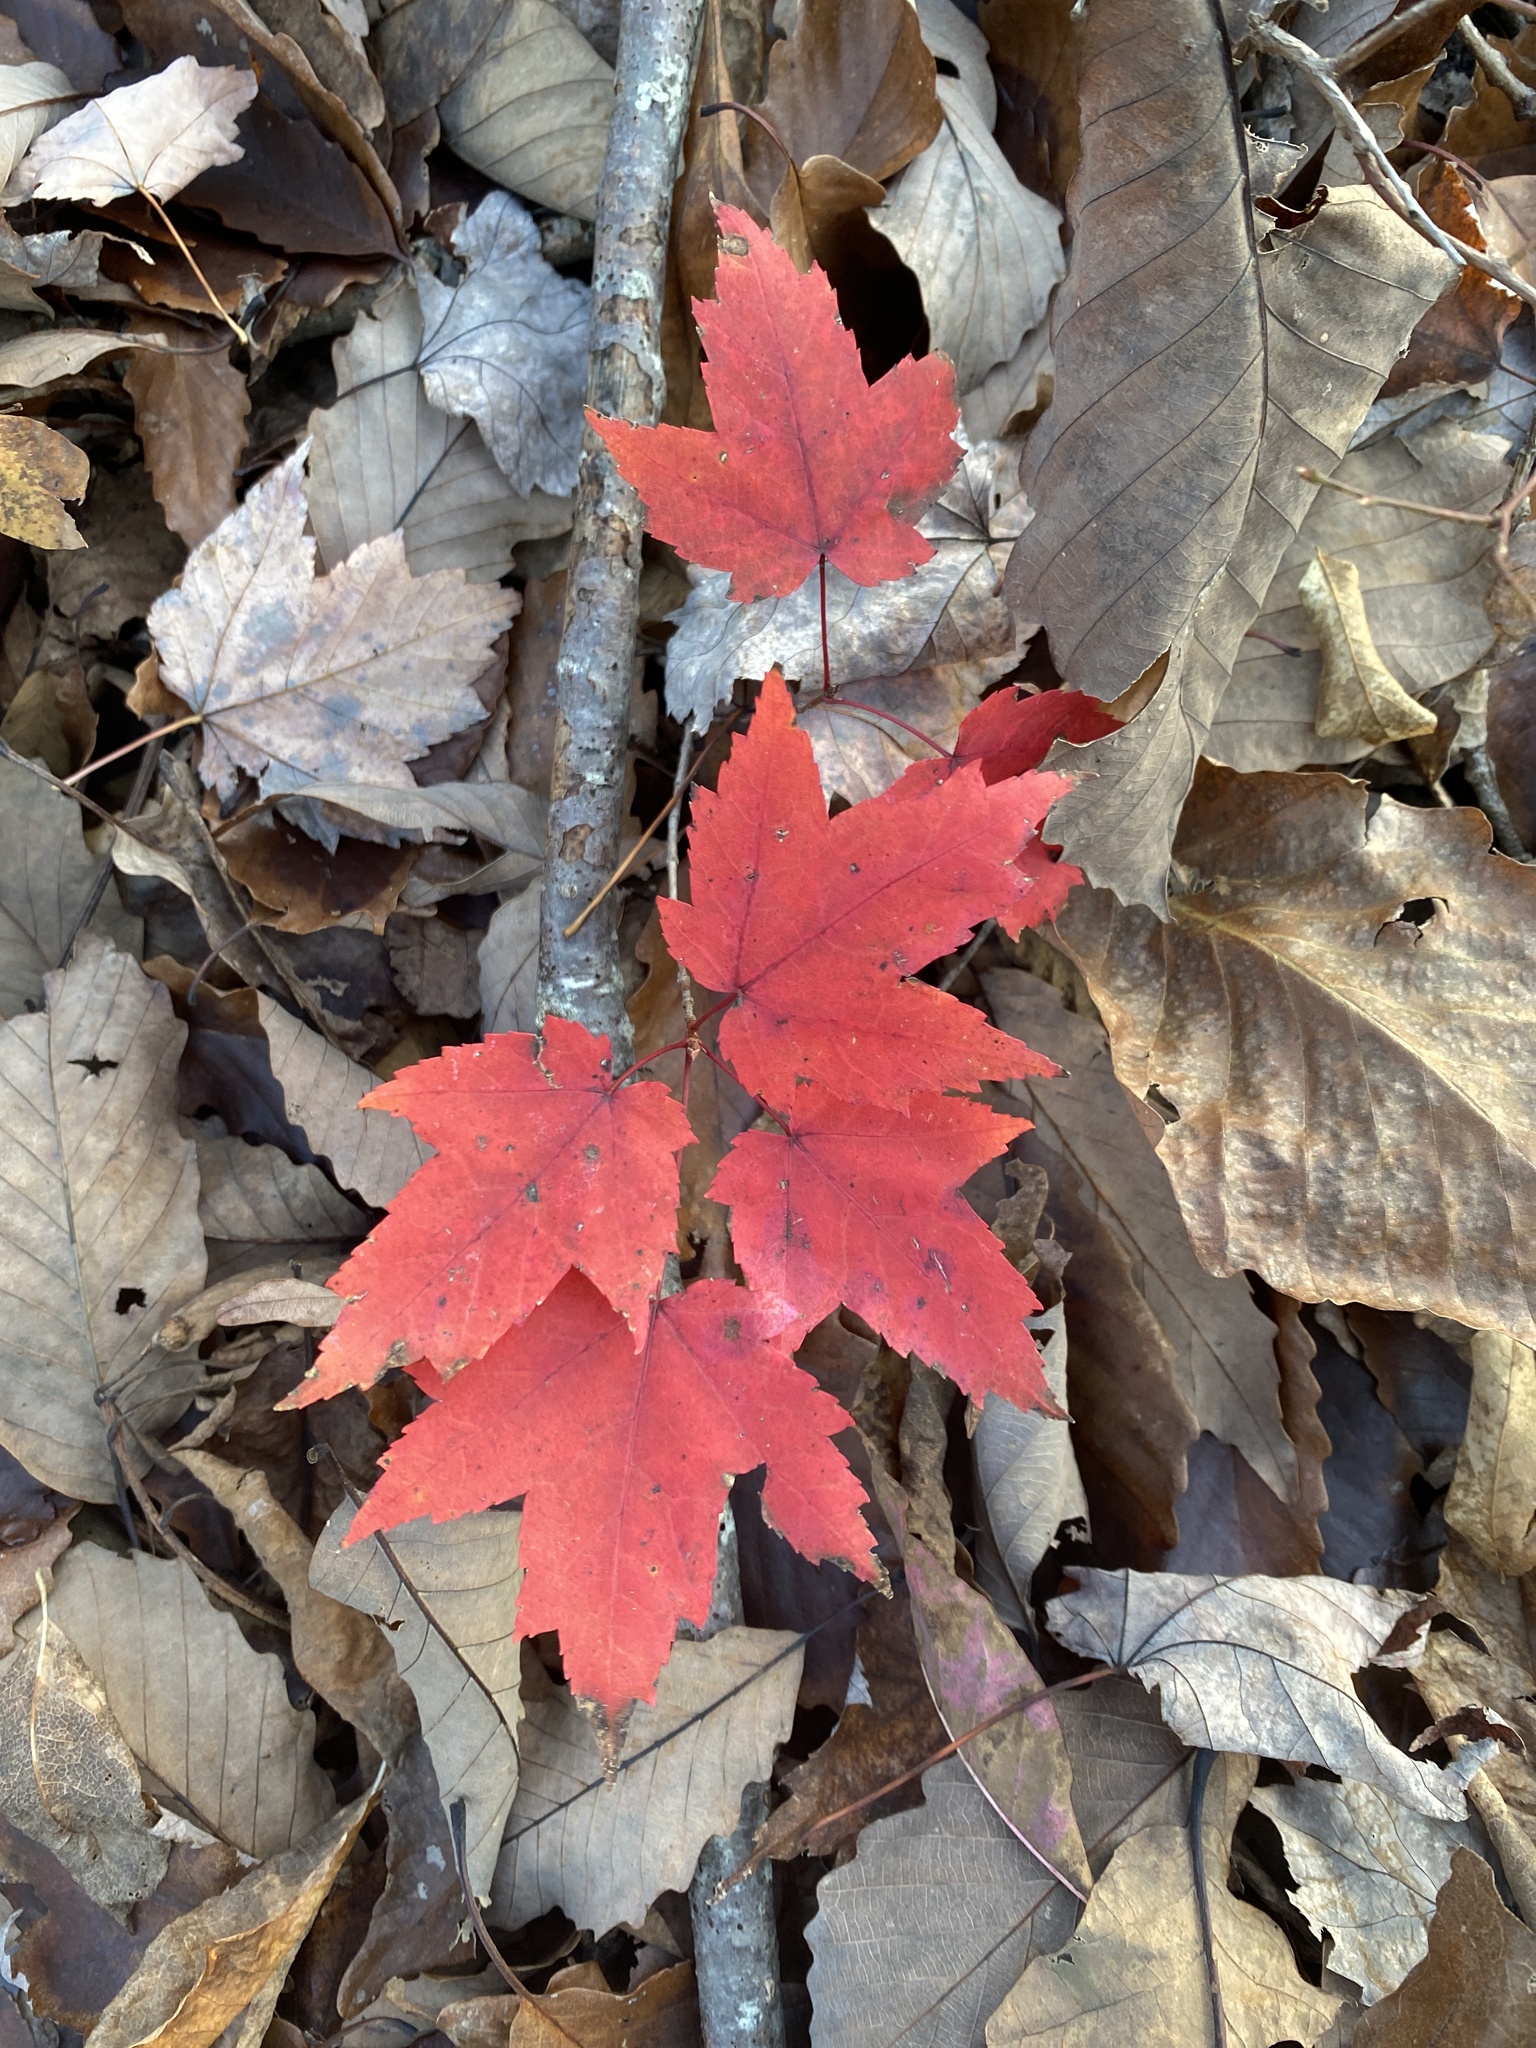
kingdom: Plantae
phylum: Tracheophyta
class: Magnoliopsida
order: Sapindales
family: Sapindaceae
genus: Acer
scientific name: Acer rubrum
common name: Red maple
